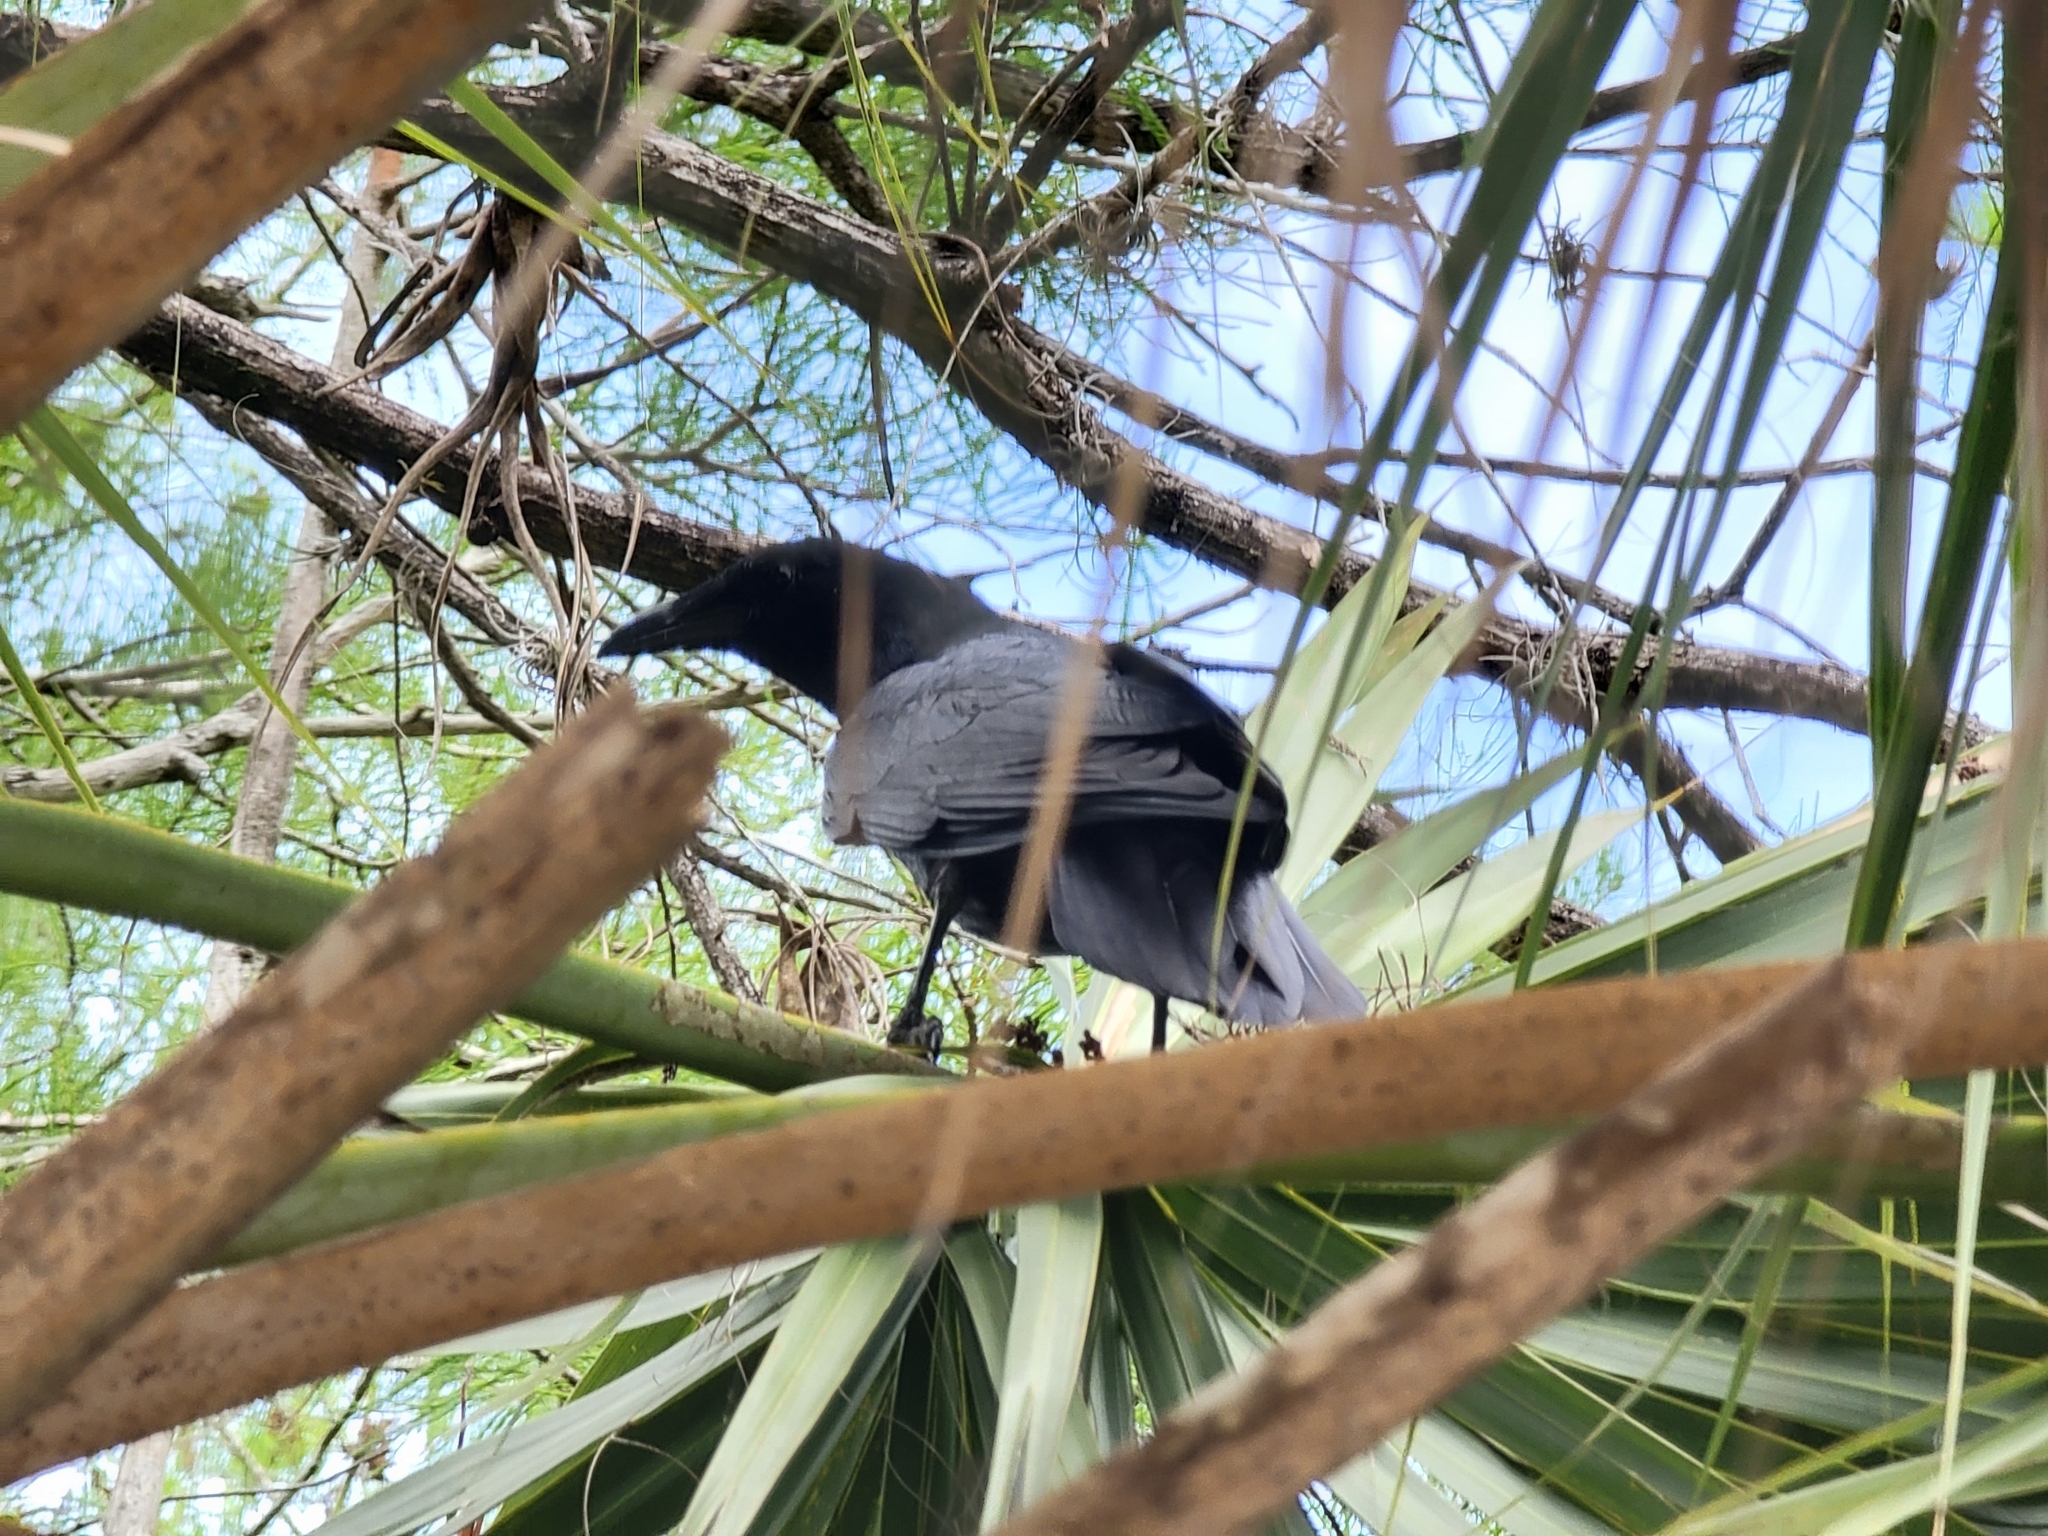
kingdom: Animalia
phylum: Chordata
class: Aves
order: Passeriformes
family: Corvidae
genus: Corvus
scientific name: Corvus
